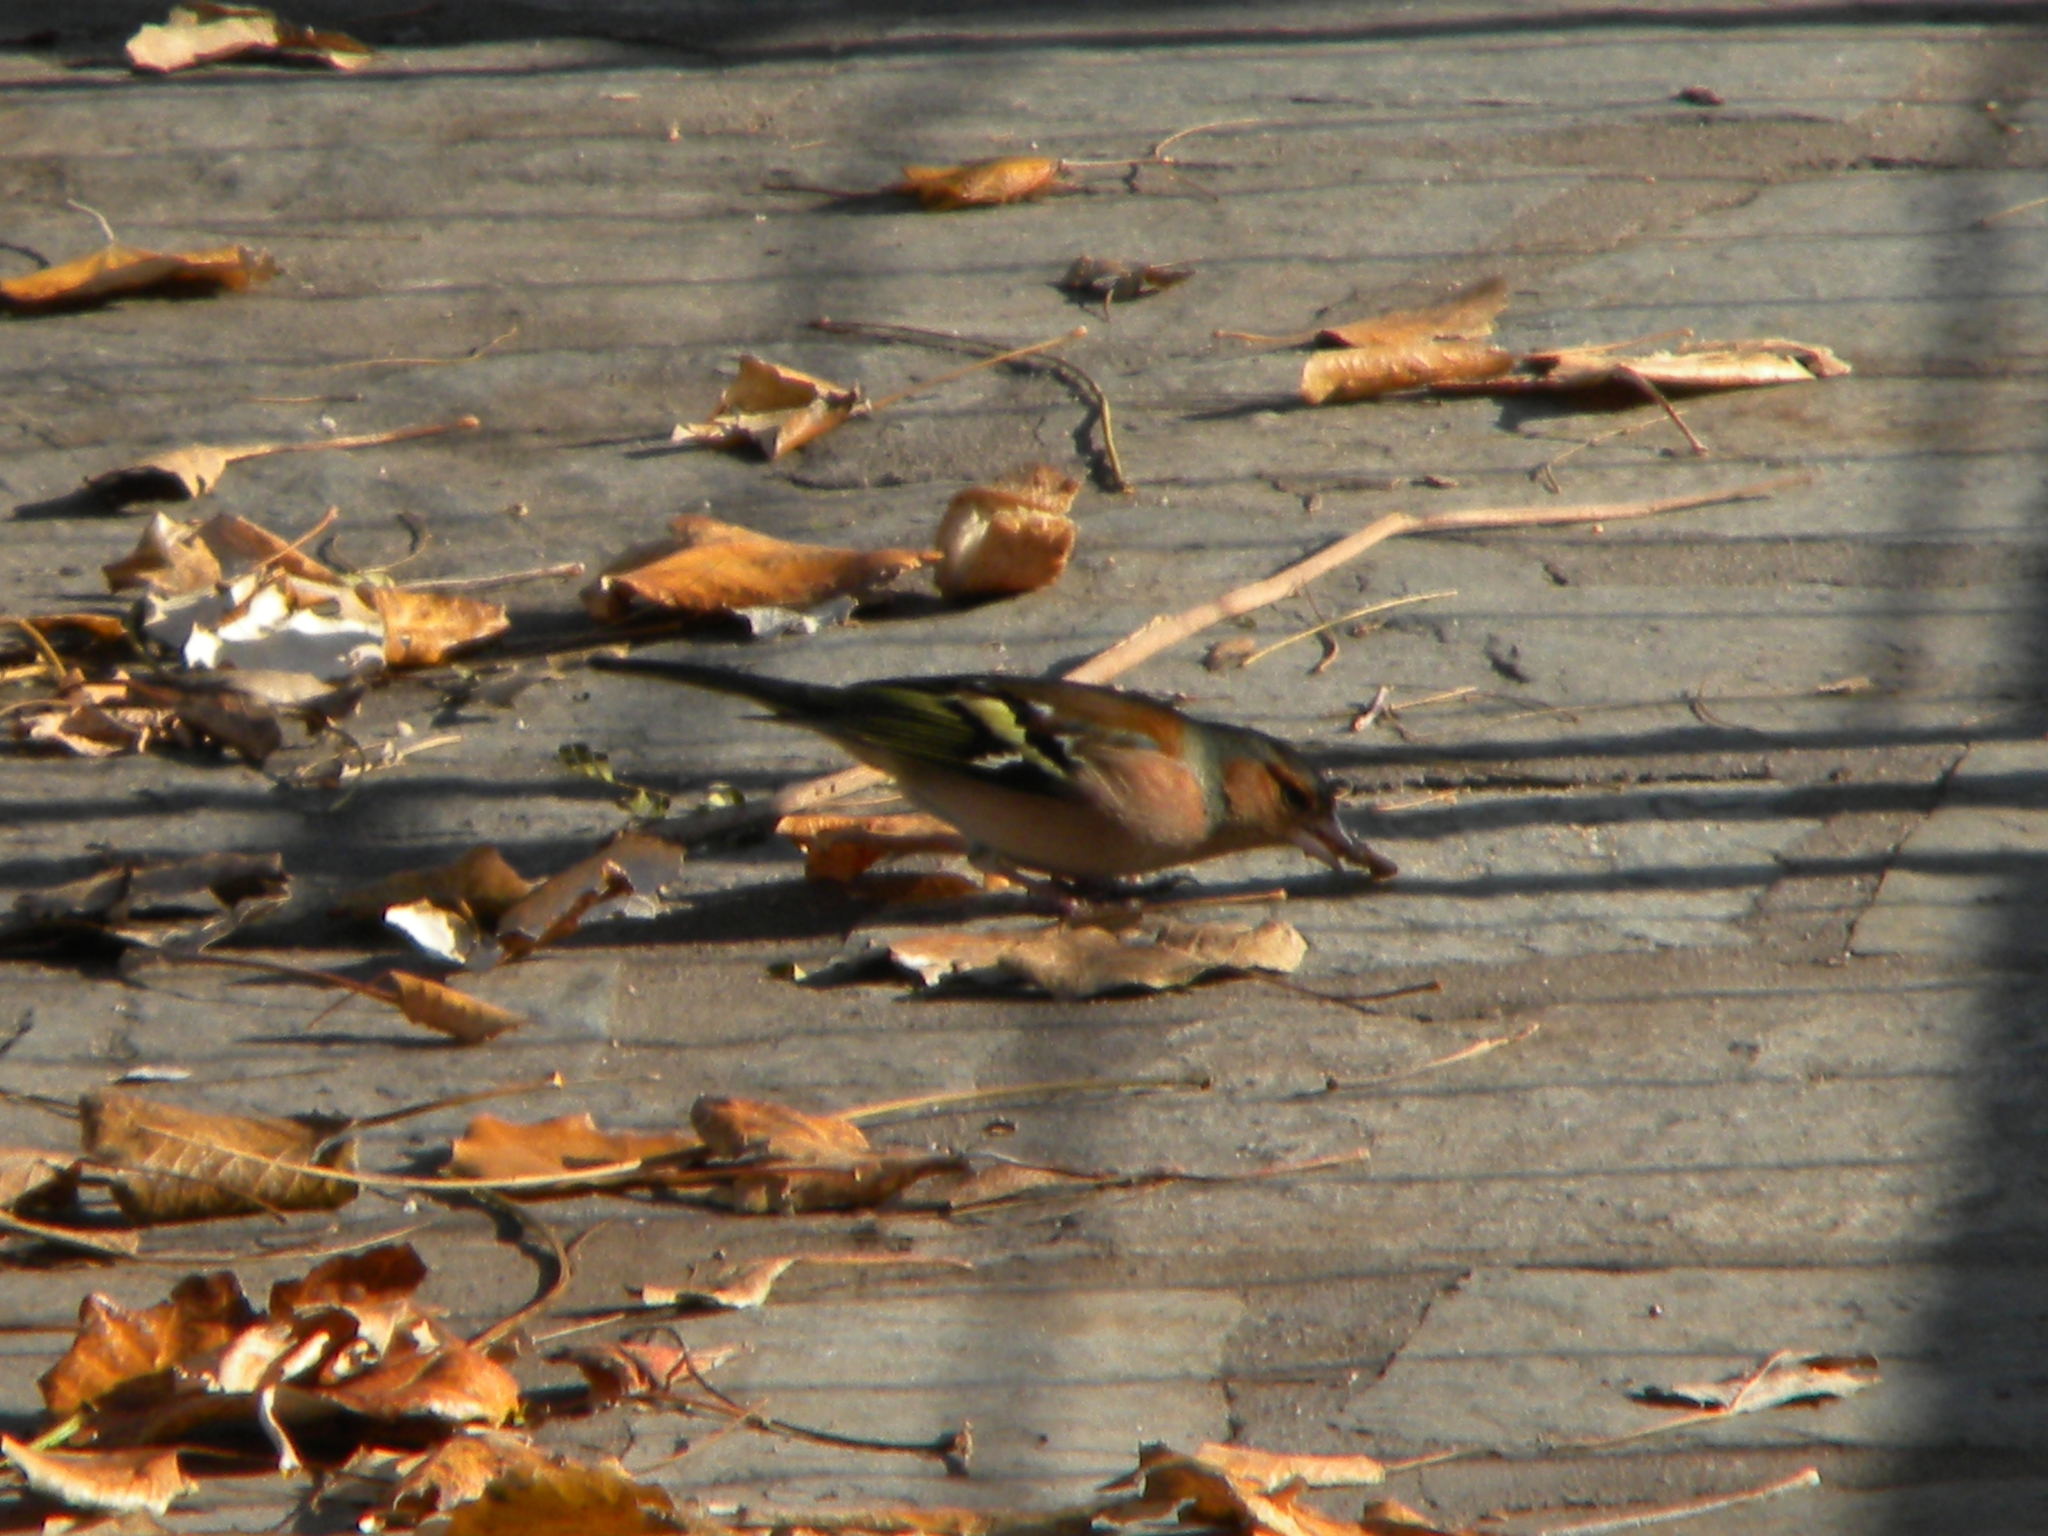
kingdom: Animalia
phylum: Chordata
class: Aves
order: Passeriformes
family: Fringillidae
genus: Fringilla
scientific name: Fringilla coelebs
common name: Common chaffinch
